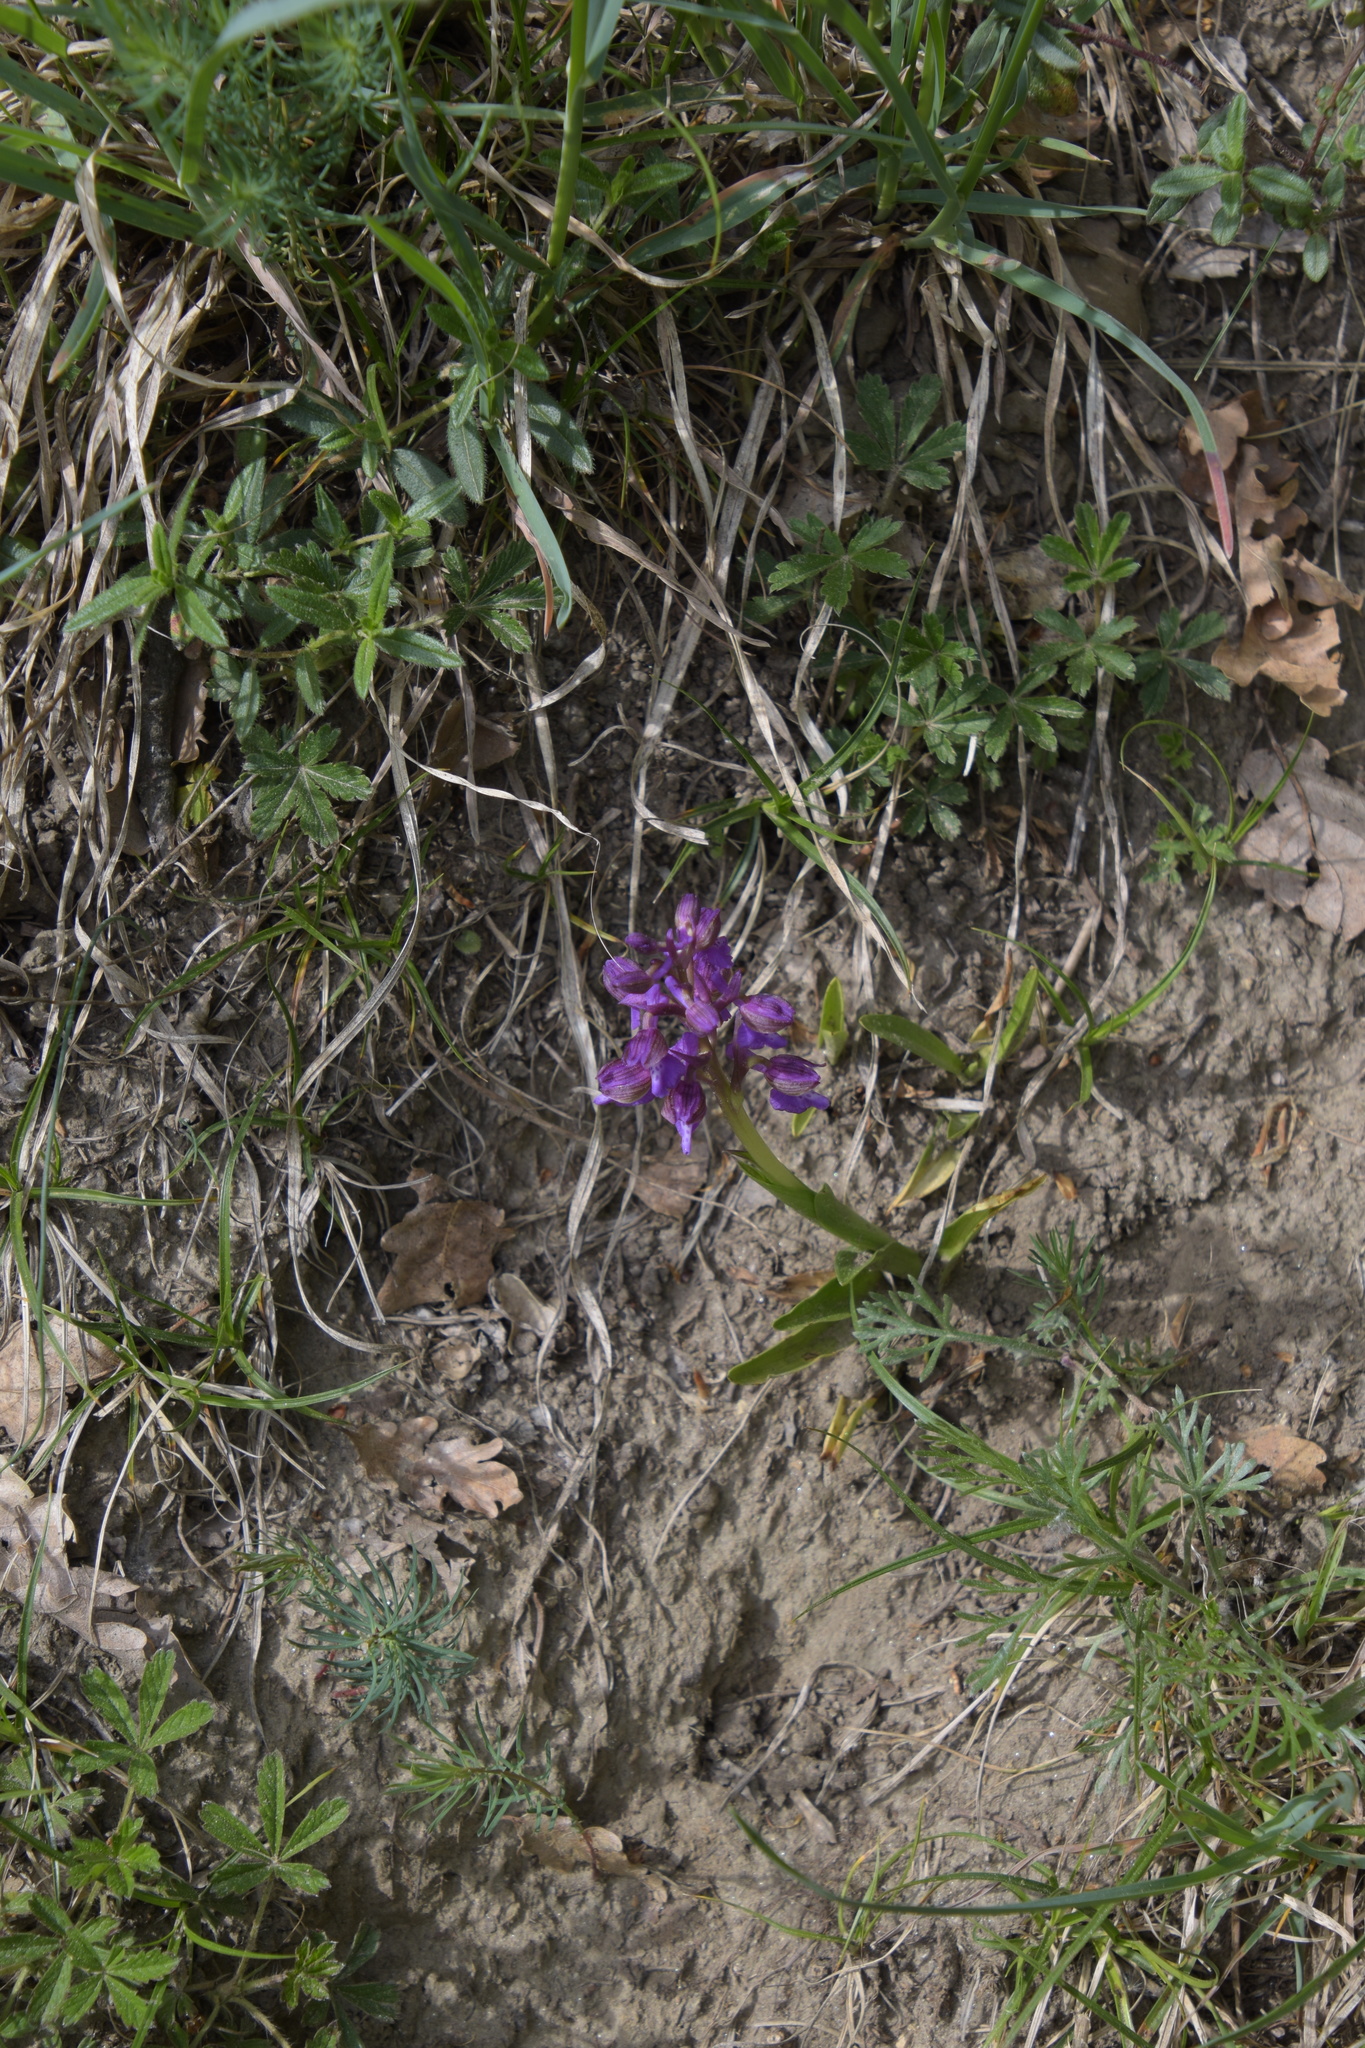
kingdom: Plantae
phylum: Tracheophyta
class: Liliopsida
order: Asparagales
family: Orchidaceae
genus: Anacamptis
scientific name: Anacamptis morio
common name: Green-winged orchid
